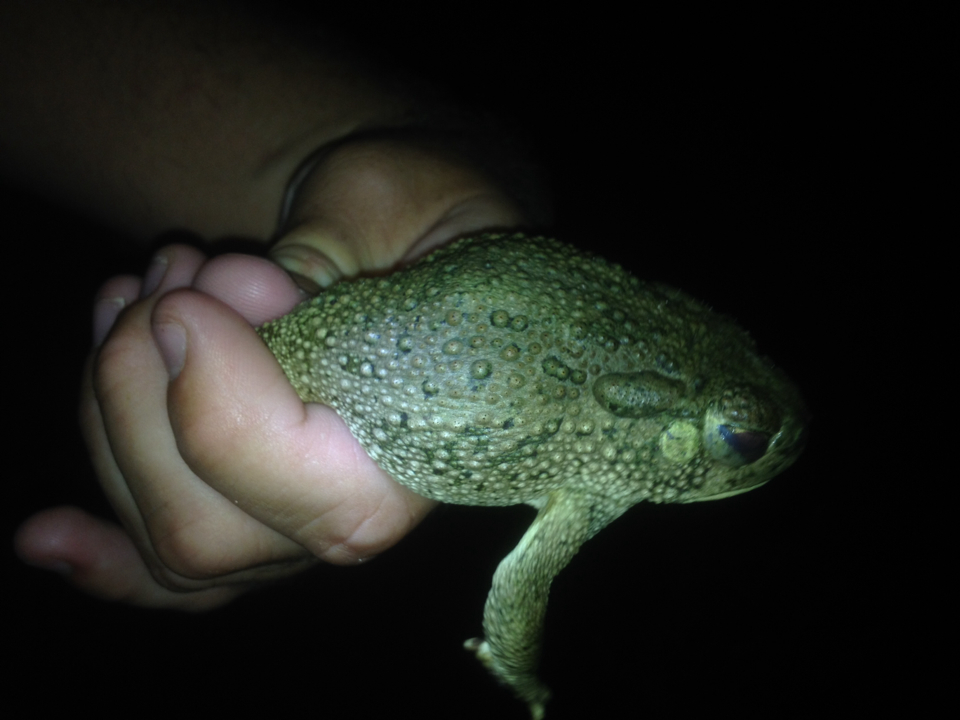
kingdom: Animalia
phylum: Chordata
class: Amphibia
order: Anura
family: Bufonidae
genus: Anaxyrus
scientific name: Anaxyrus speciosus
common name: Texas toad
